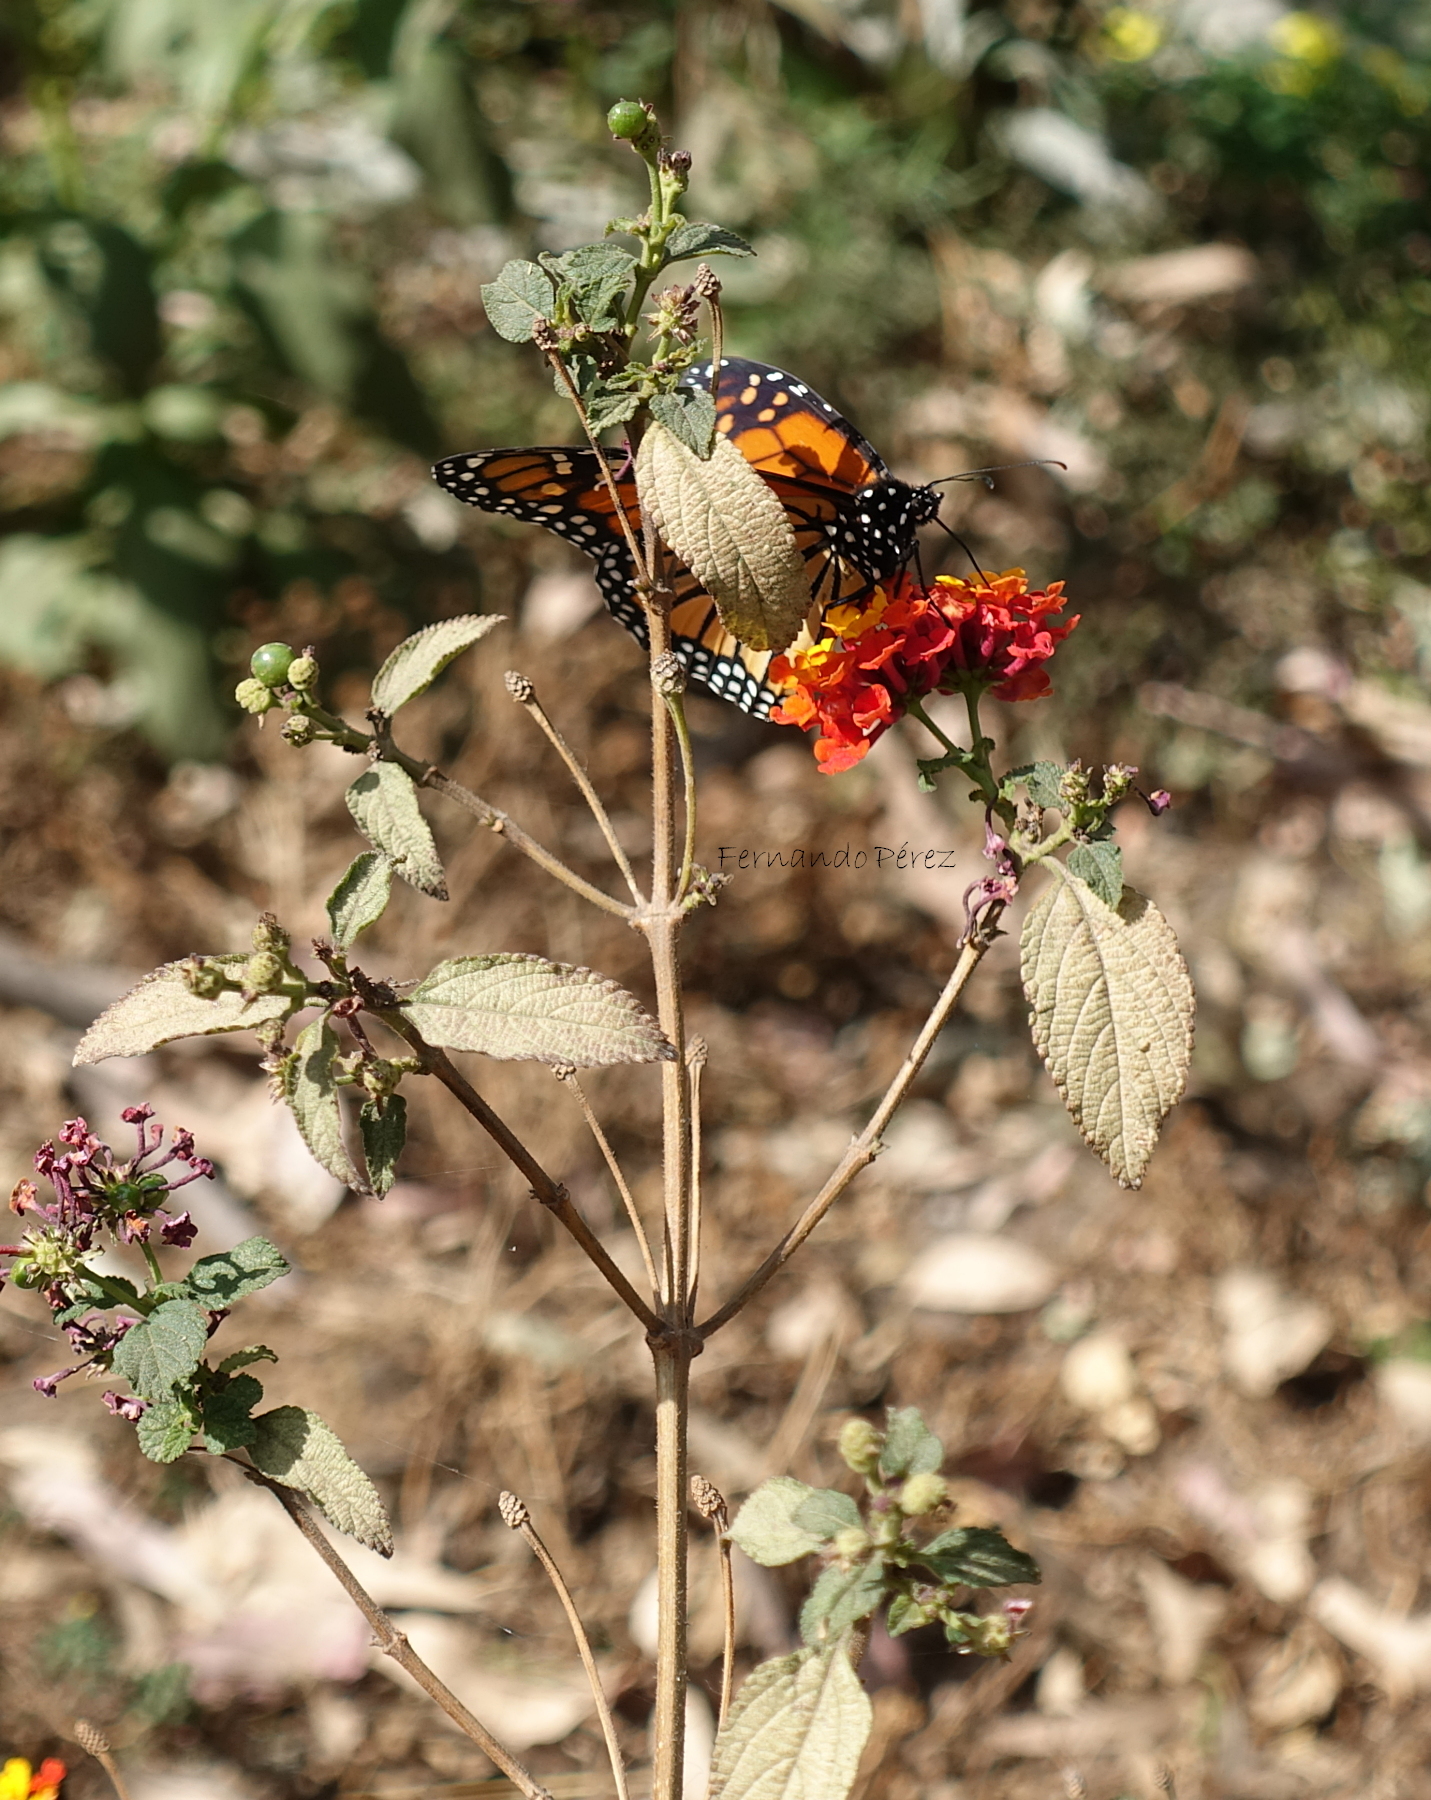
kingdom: Animalia
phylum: Arthropoda
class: Insecta
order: Lepidoptera
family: Nymphalidae
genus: Danaus
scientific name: Danaus plexippus
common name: Monarch
